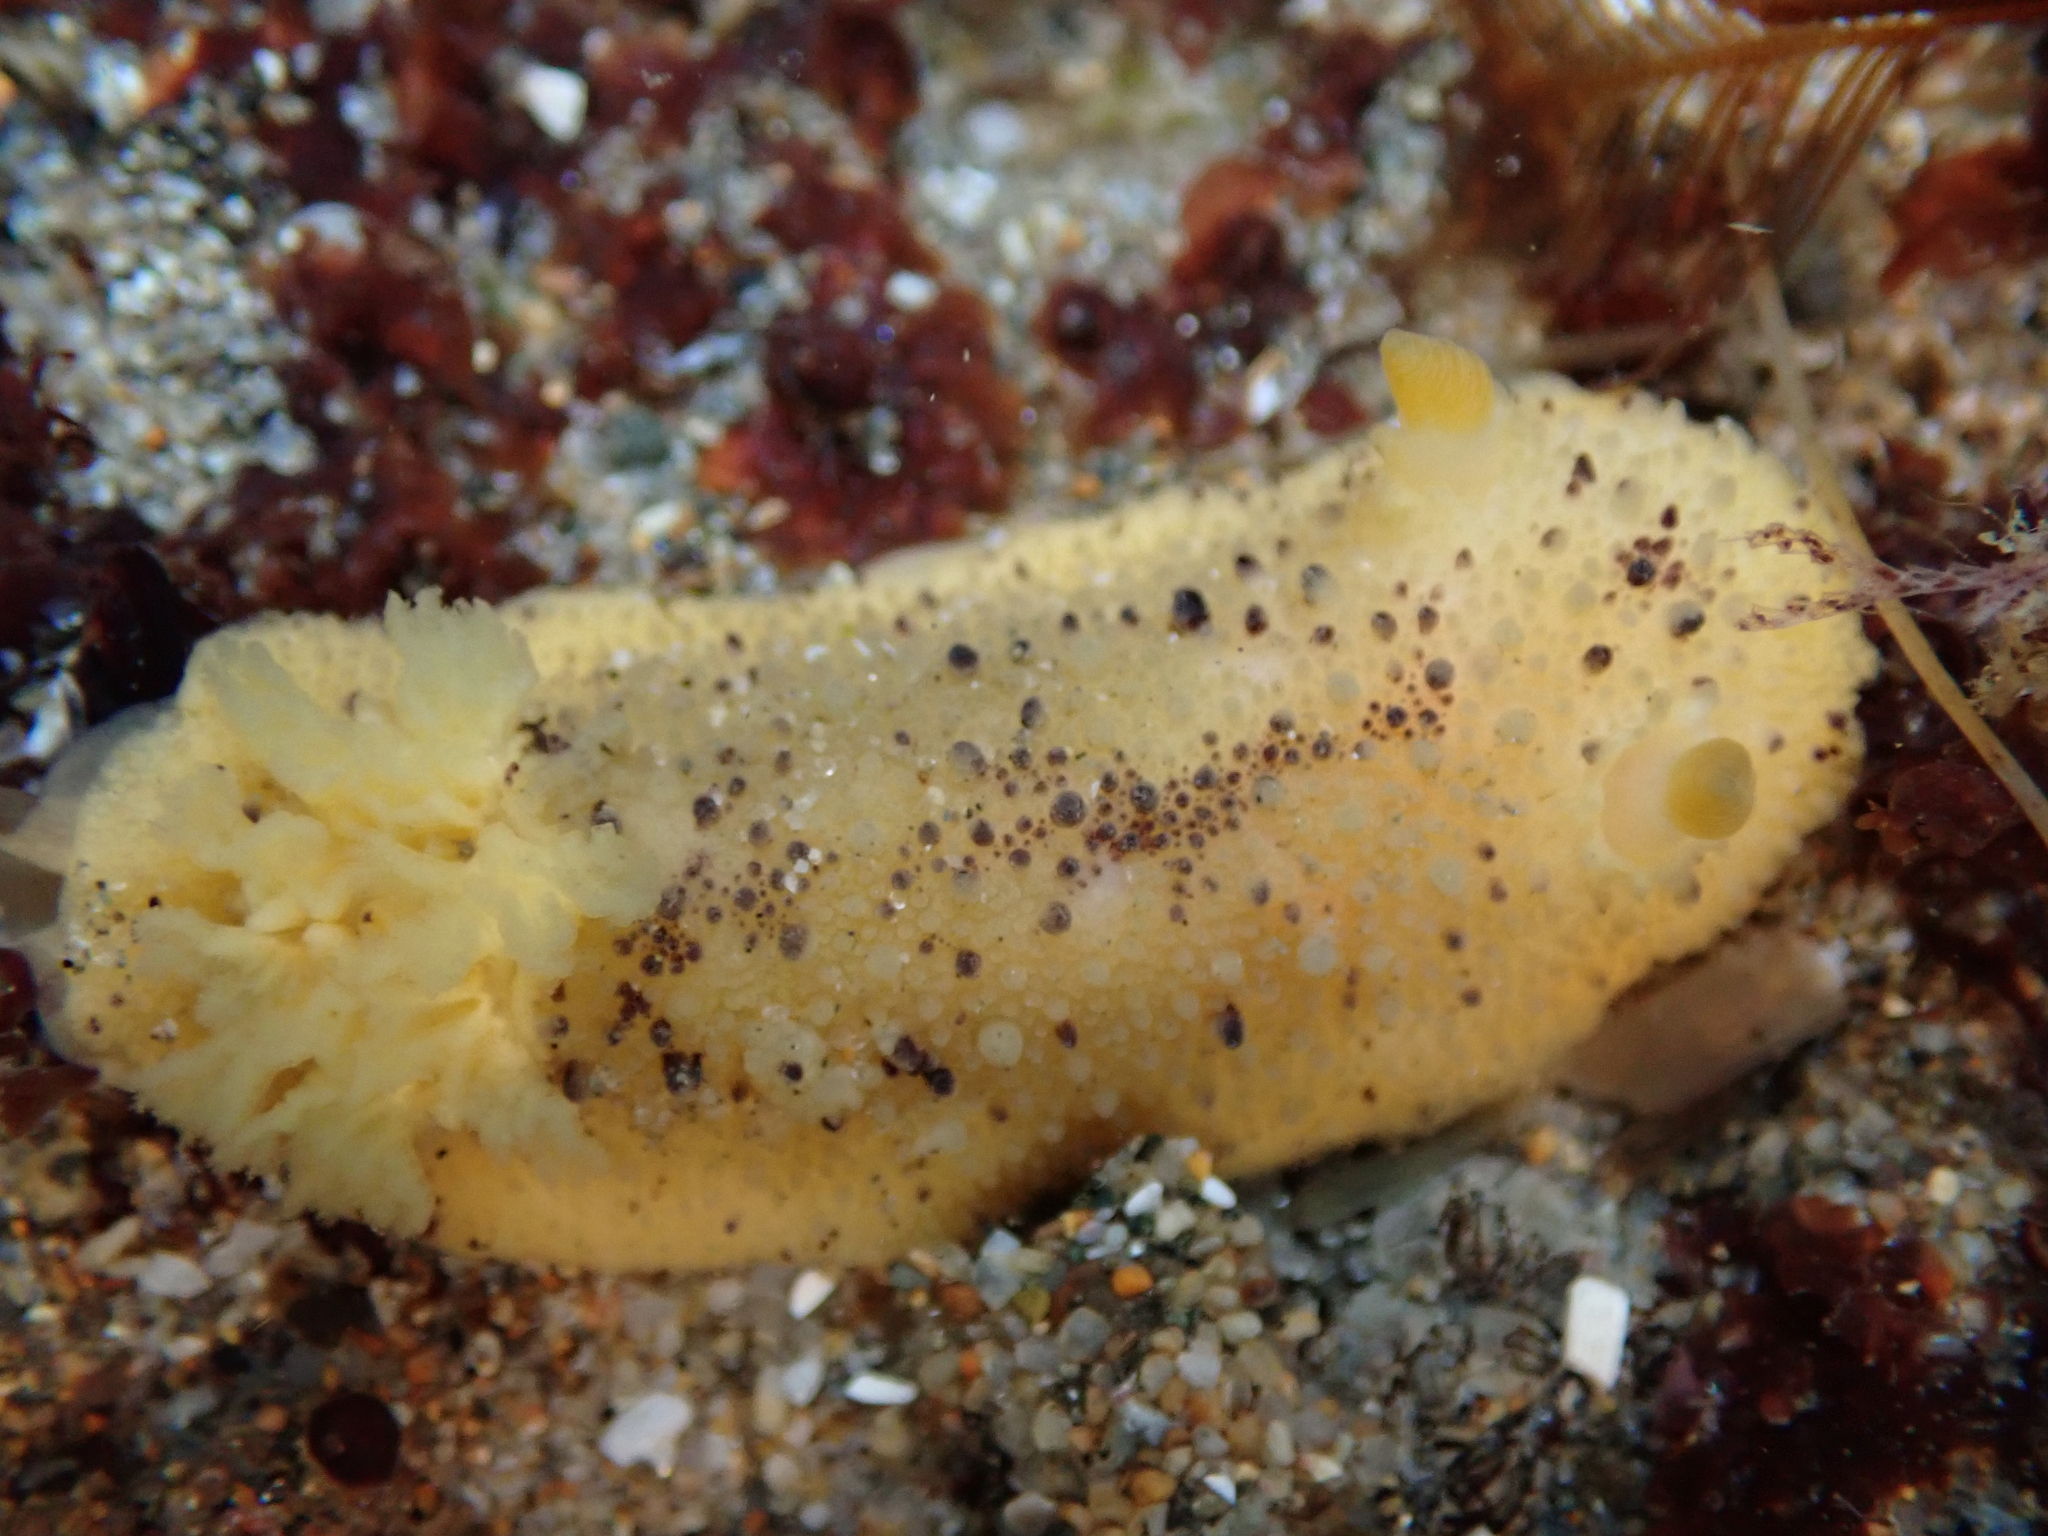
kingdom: Animalia
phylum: Mollusca
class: Gastropoda
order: Nudibranchia
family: Dorididae
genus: Doris
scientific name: Doris montereyensis
